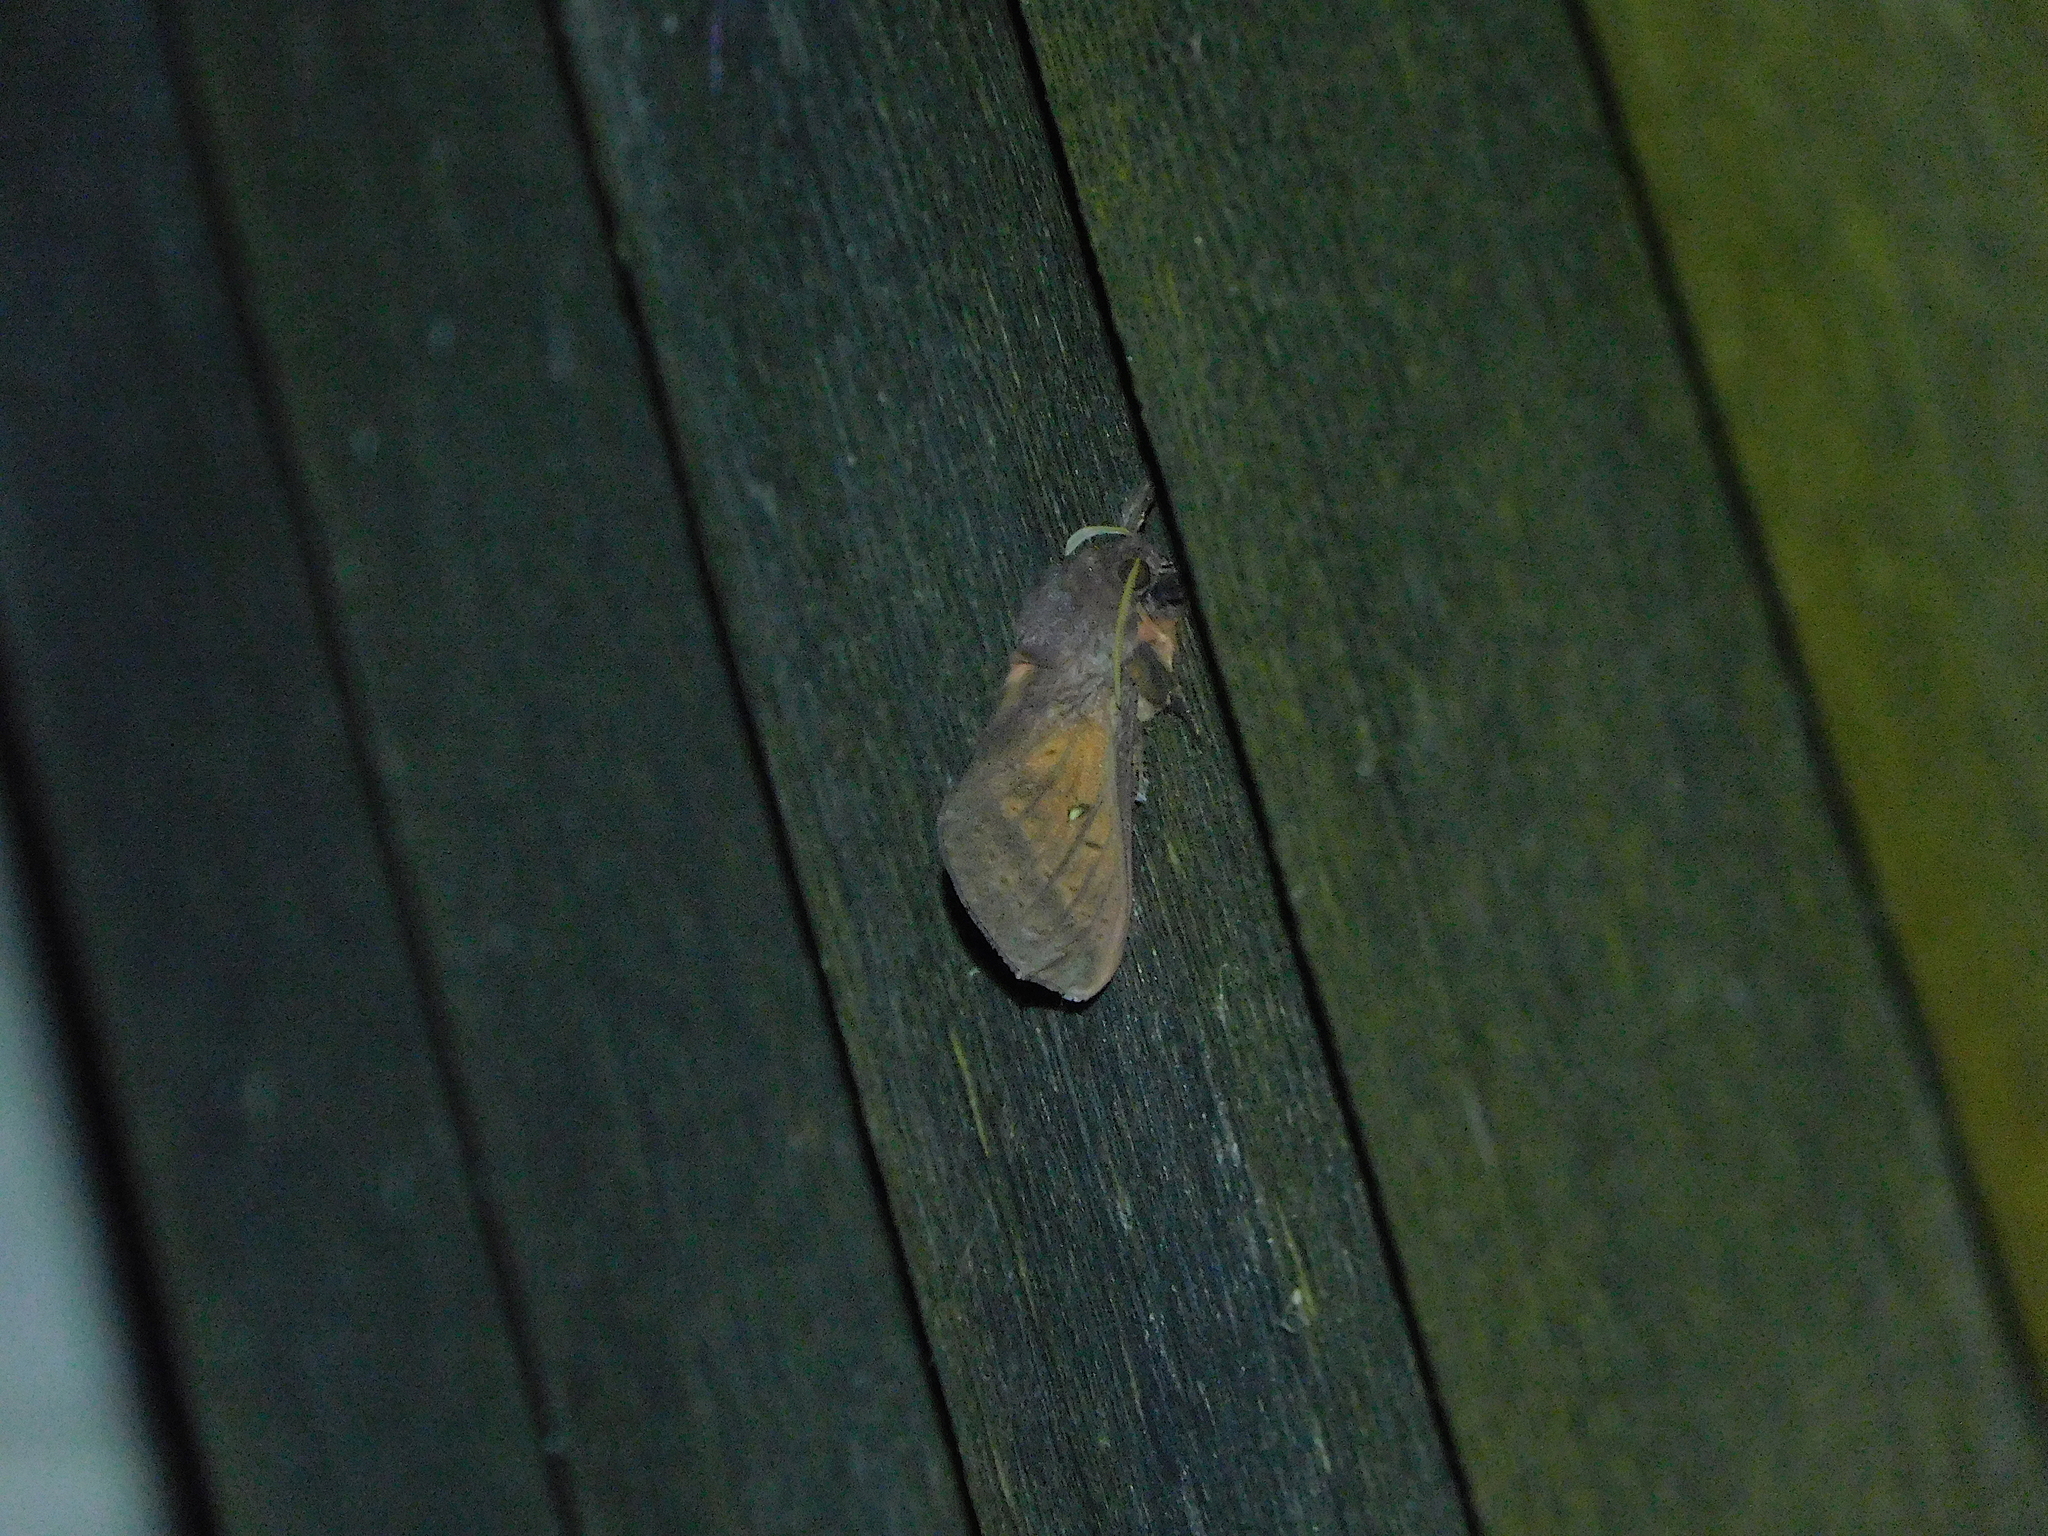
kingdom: Animalia
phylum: Arthropoda
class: Insecta
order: Lepidoptera
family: Hepialidae
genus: Oxycanus
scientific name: Oxycanus rufescens
